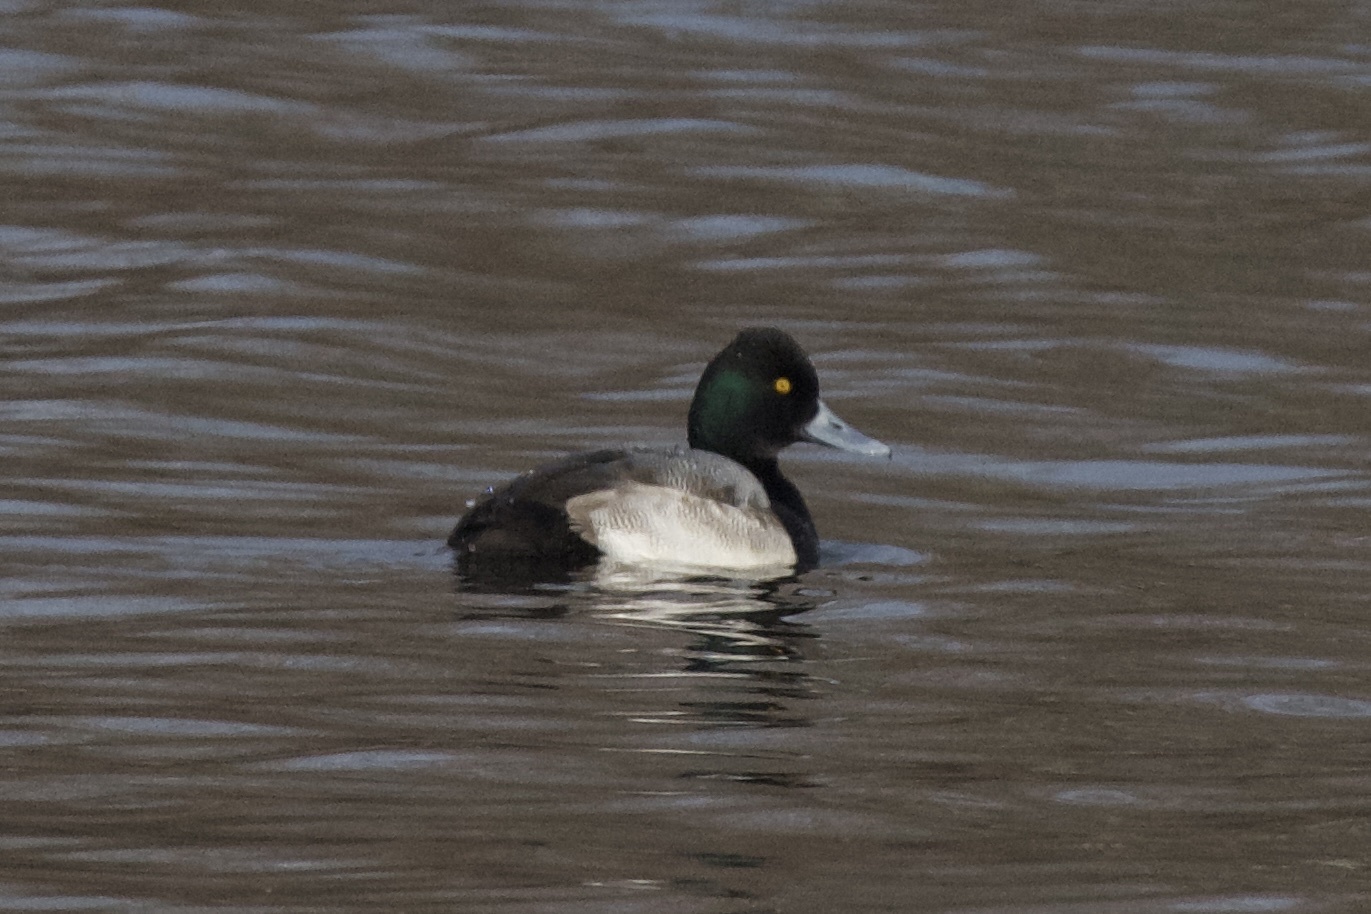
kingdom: Animalia
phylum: Chordata
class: Aves
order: Anseriformes
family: Anatidae
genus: Aythya
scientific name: Aythya marila
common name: Greater scaup
